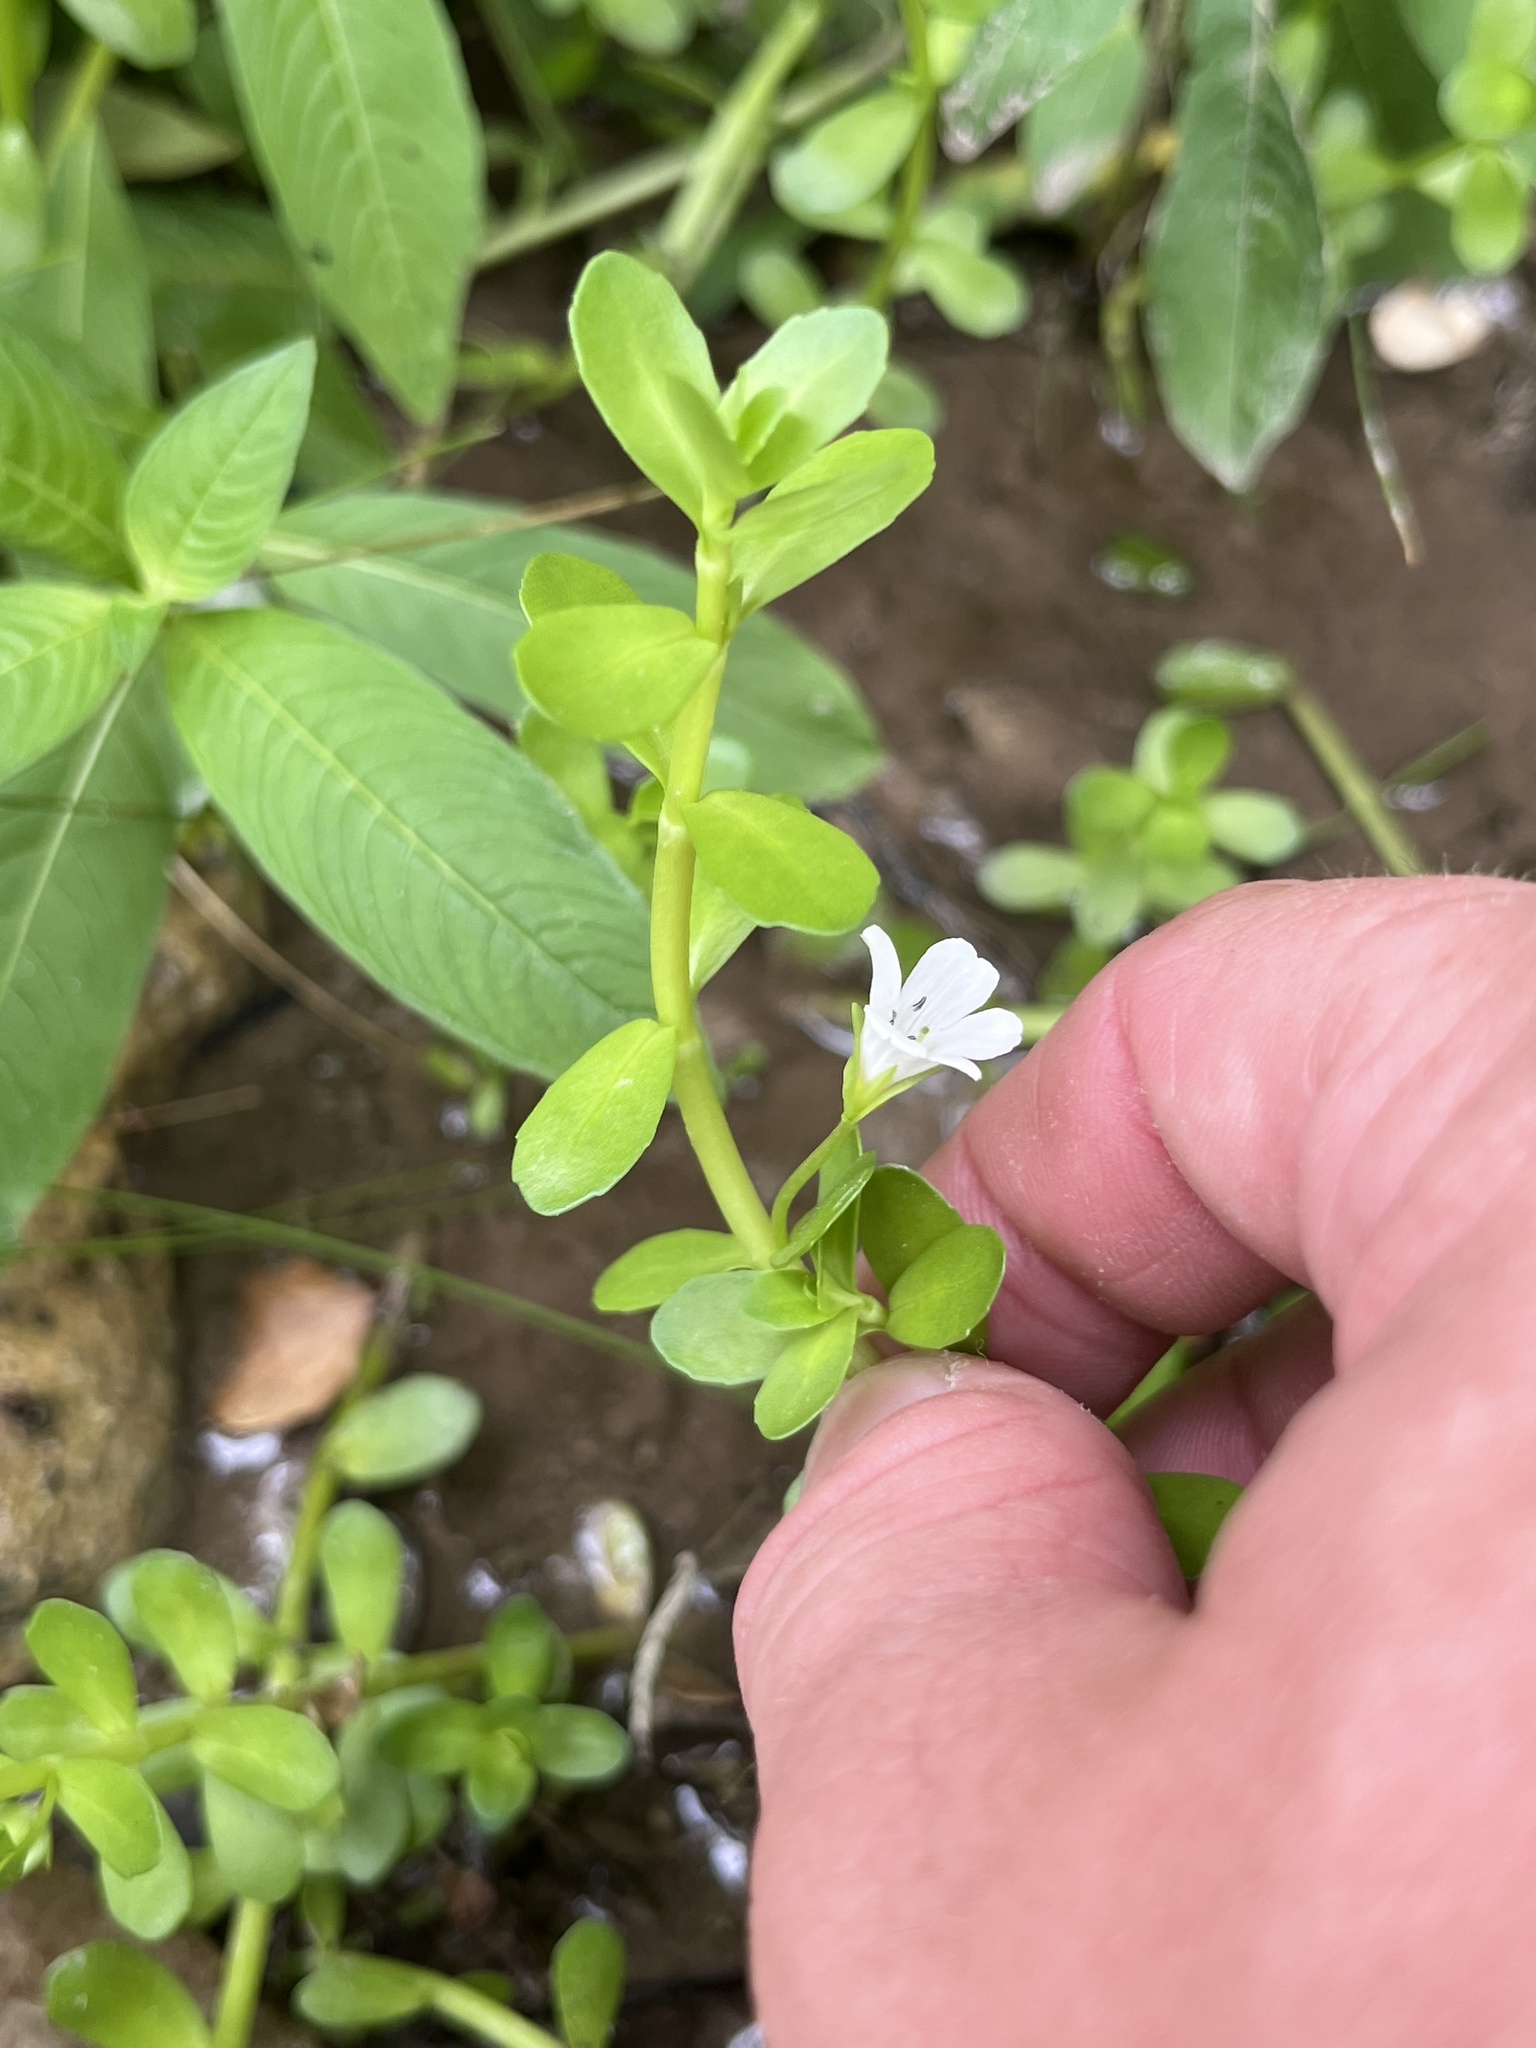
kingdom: Plantae
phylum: Tracheophyta
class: Magnoliopsida
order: Lamiales
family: Plantaginaceae
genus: Bacopa
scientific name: Bacopa monnieri
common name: Indian-pennywort
